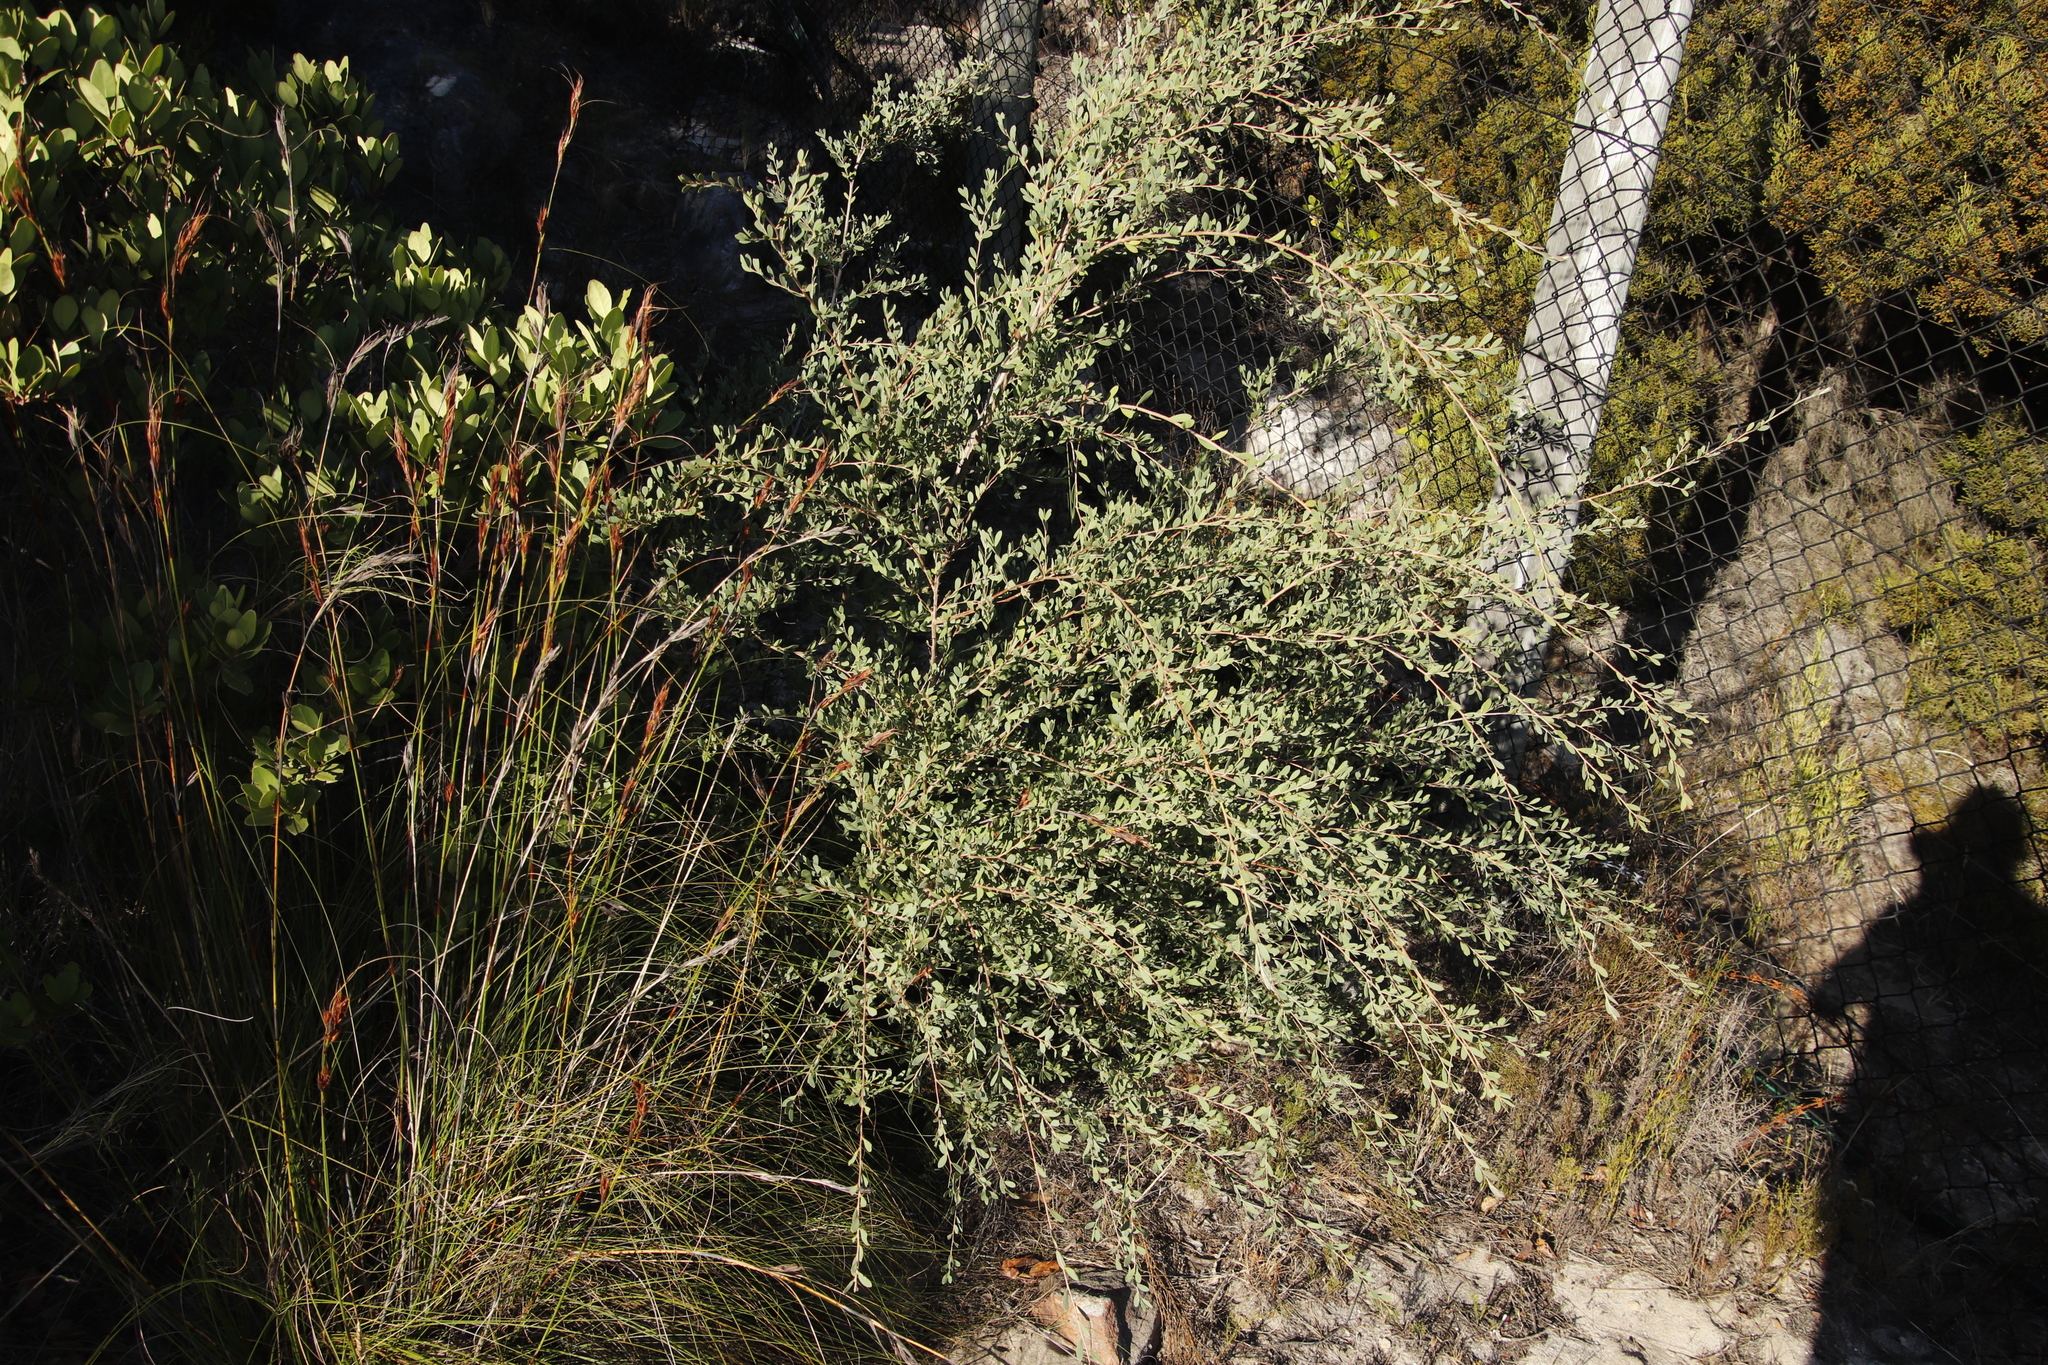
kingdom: Plantae
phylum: Tracheophyta
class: Magnoliopsida
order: Myrtales
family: Myrtaceae
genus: Leptospermum
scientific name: Leptospermum laevigatum
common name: Australian teatree
